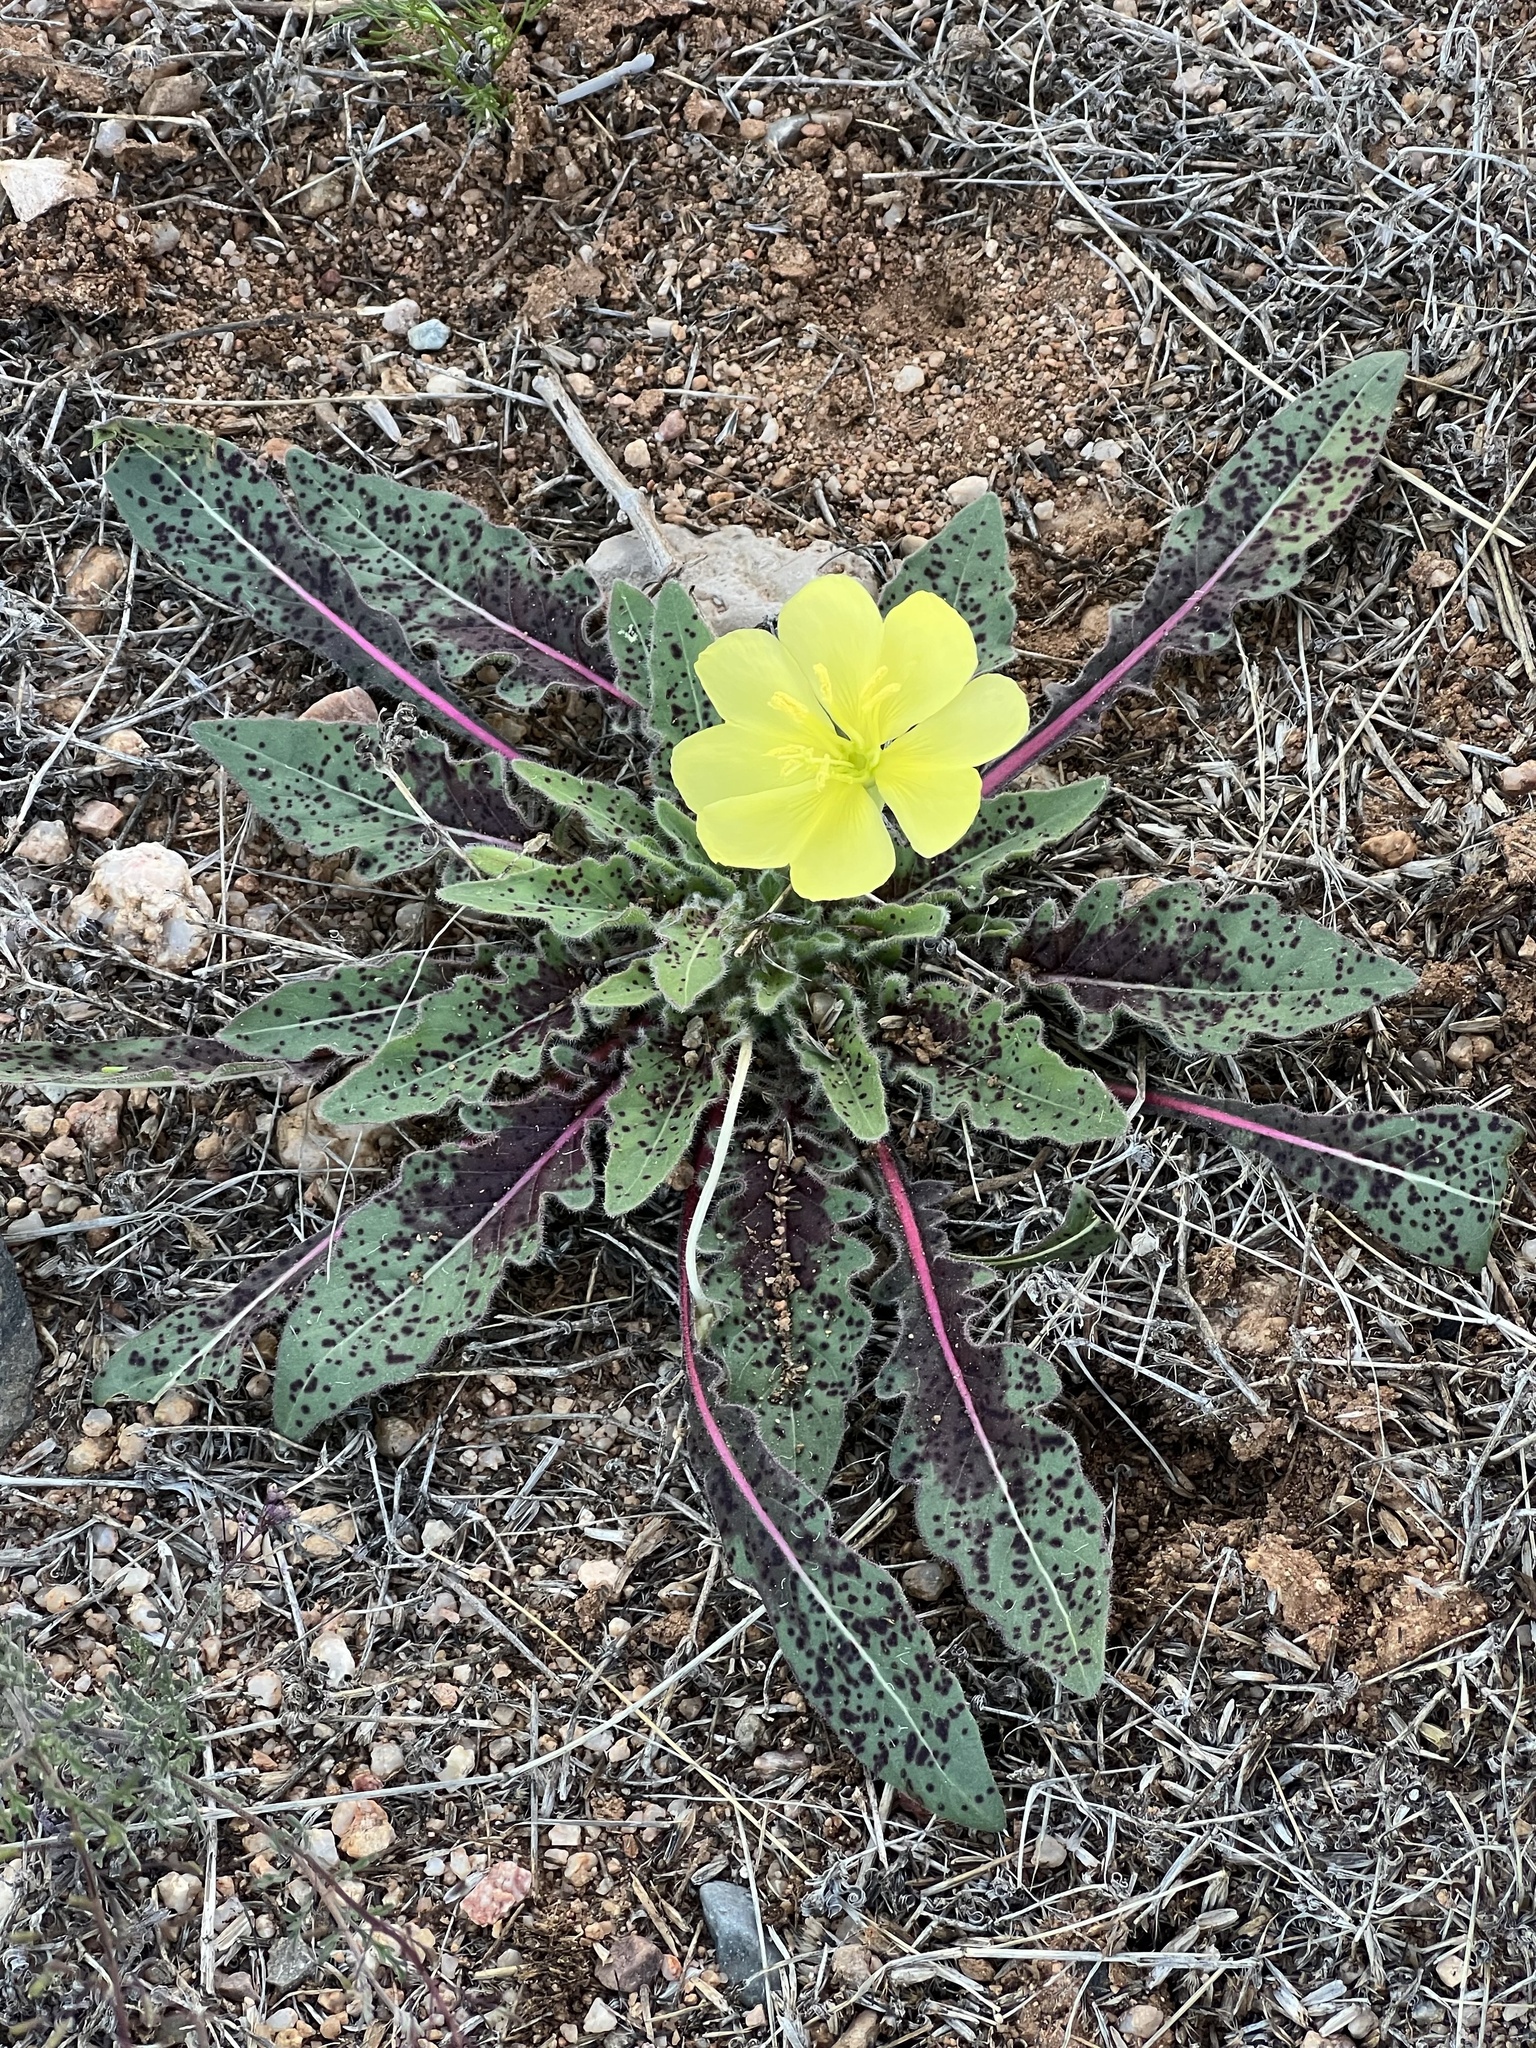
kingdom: Plantae
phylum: Tracheophyta
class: Magnoliopsida
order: Myrtales
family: Onagraceae
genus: Oenothera
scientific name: Oenothera primiveris
